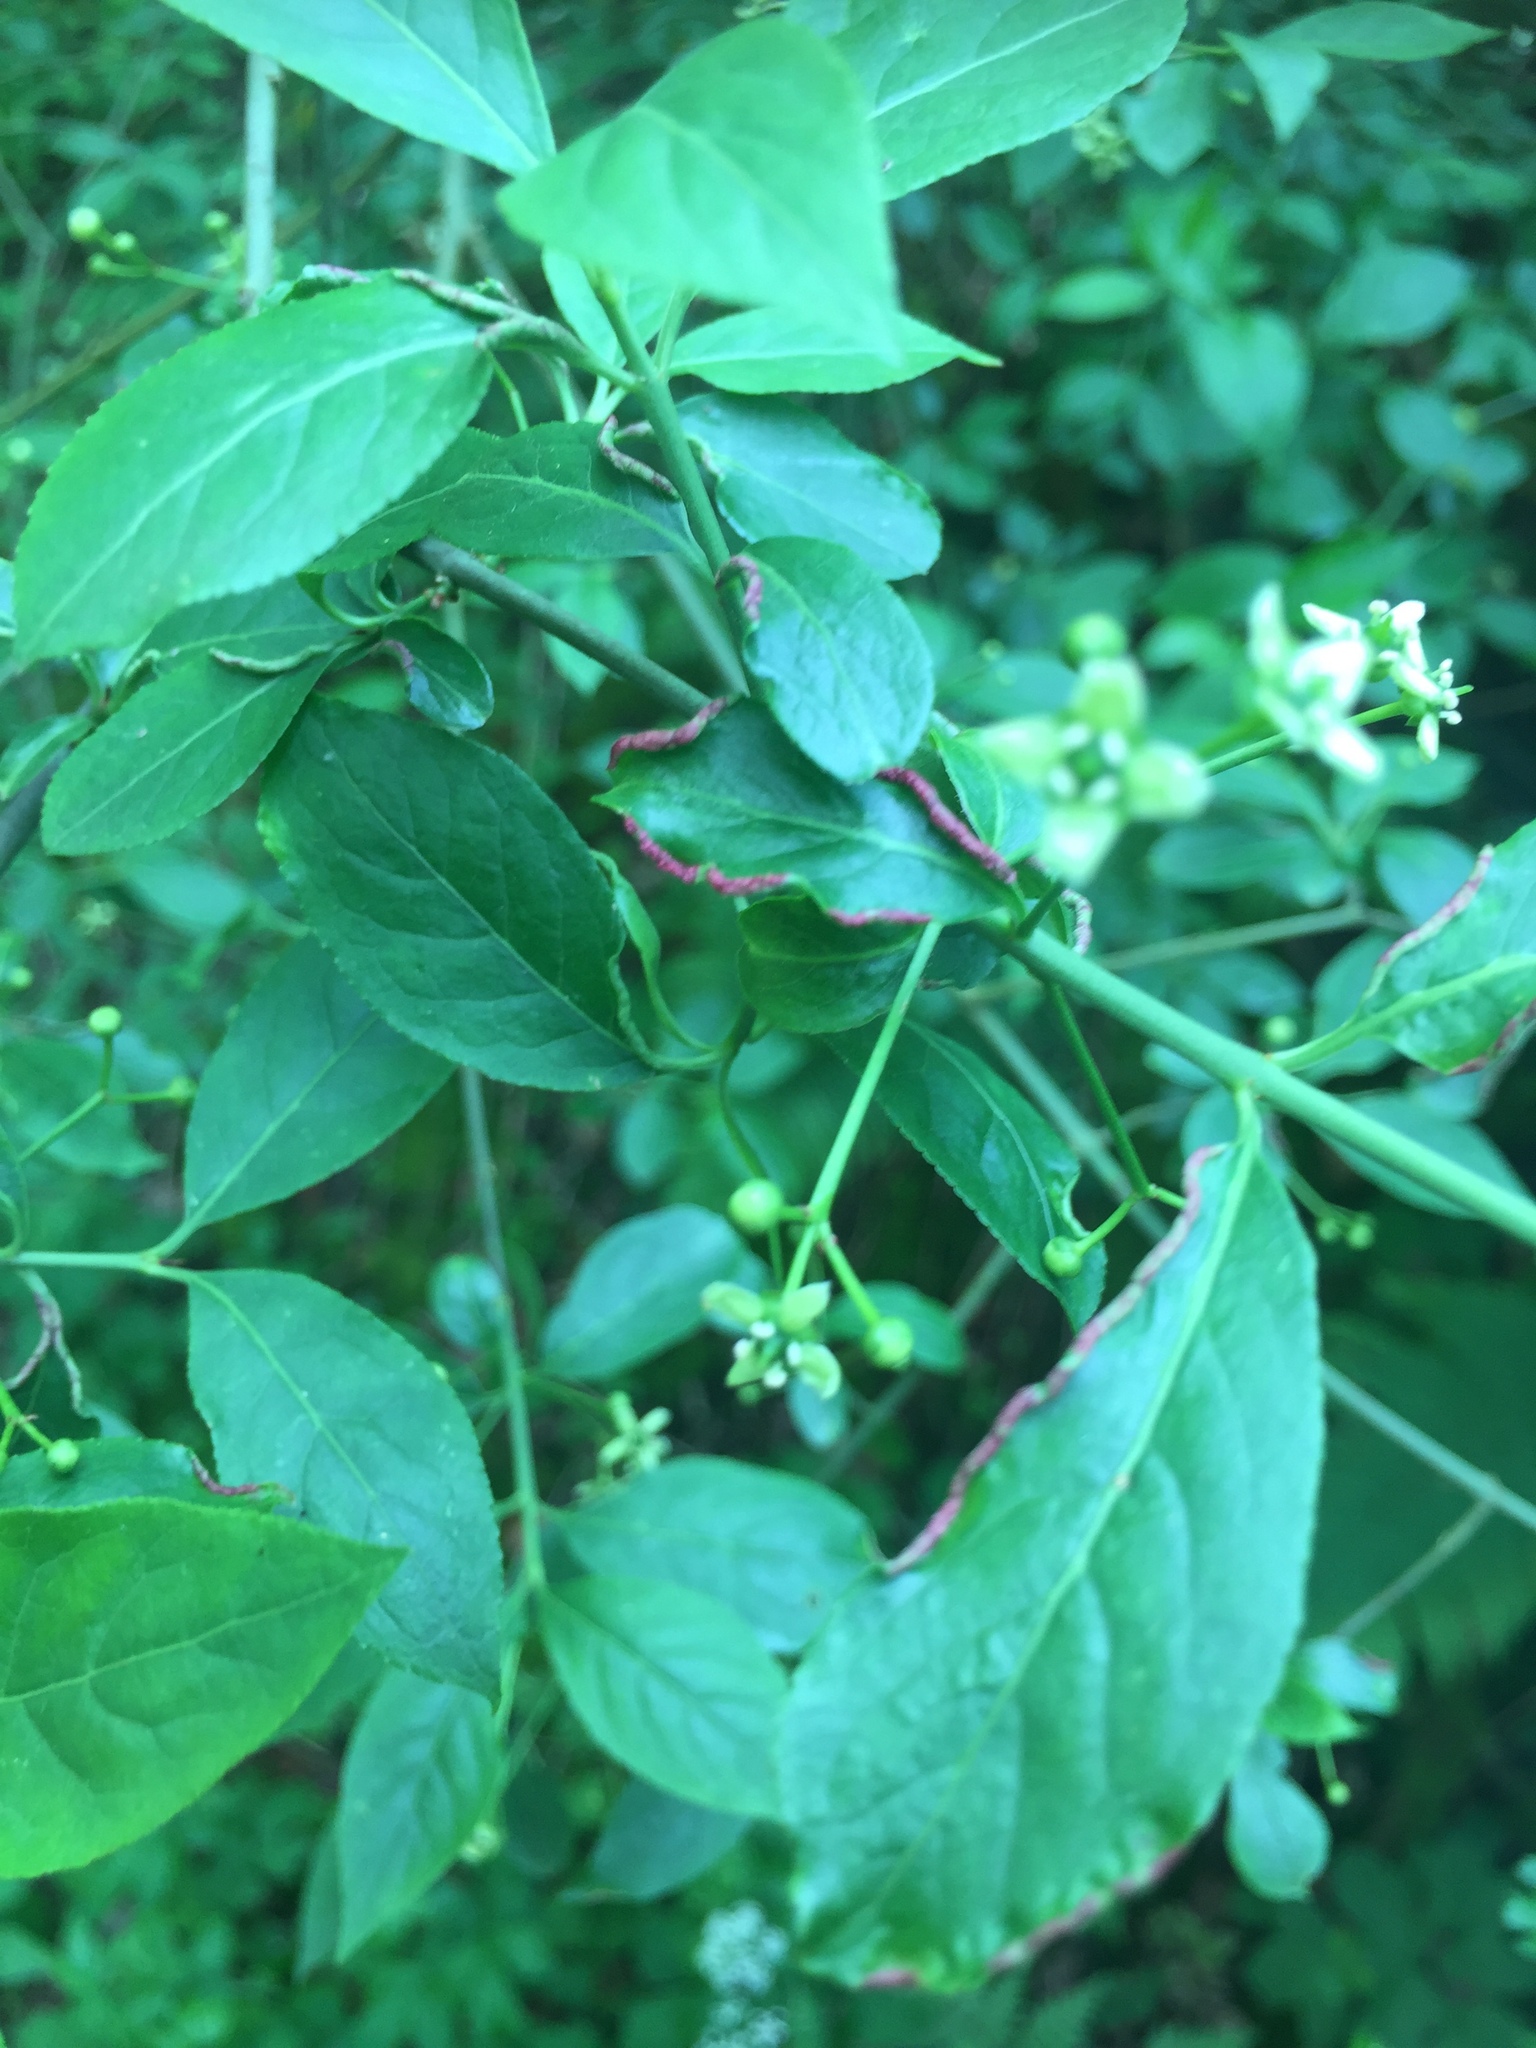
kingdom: Animalia
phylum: Arthropoda
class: Arachnida
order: Trombidiformes
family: Eriophyidae
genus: Stenacis
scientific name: Stenacis evonymi
